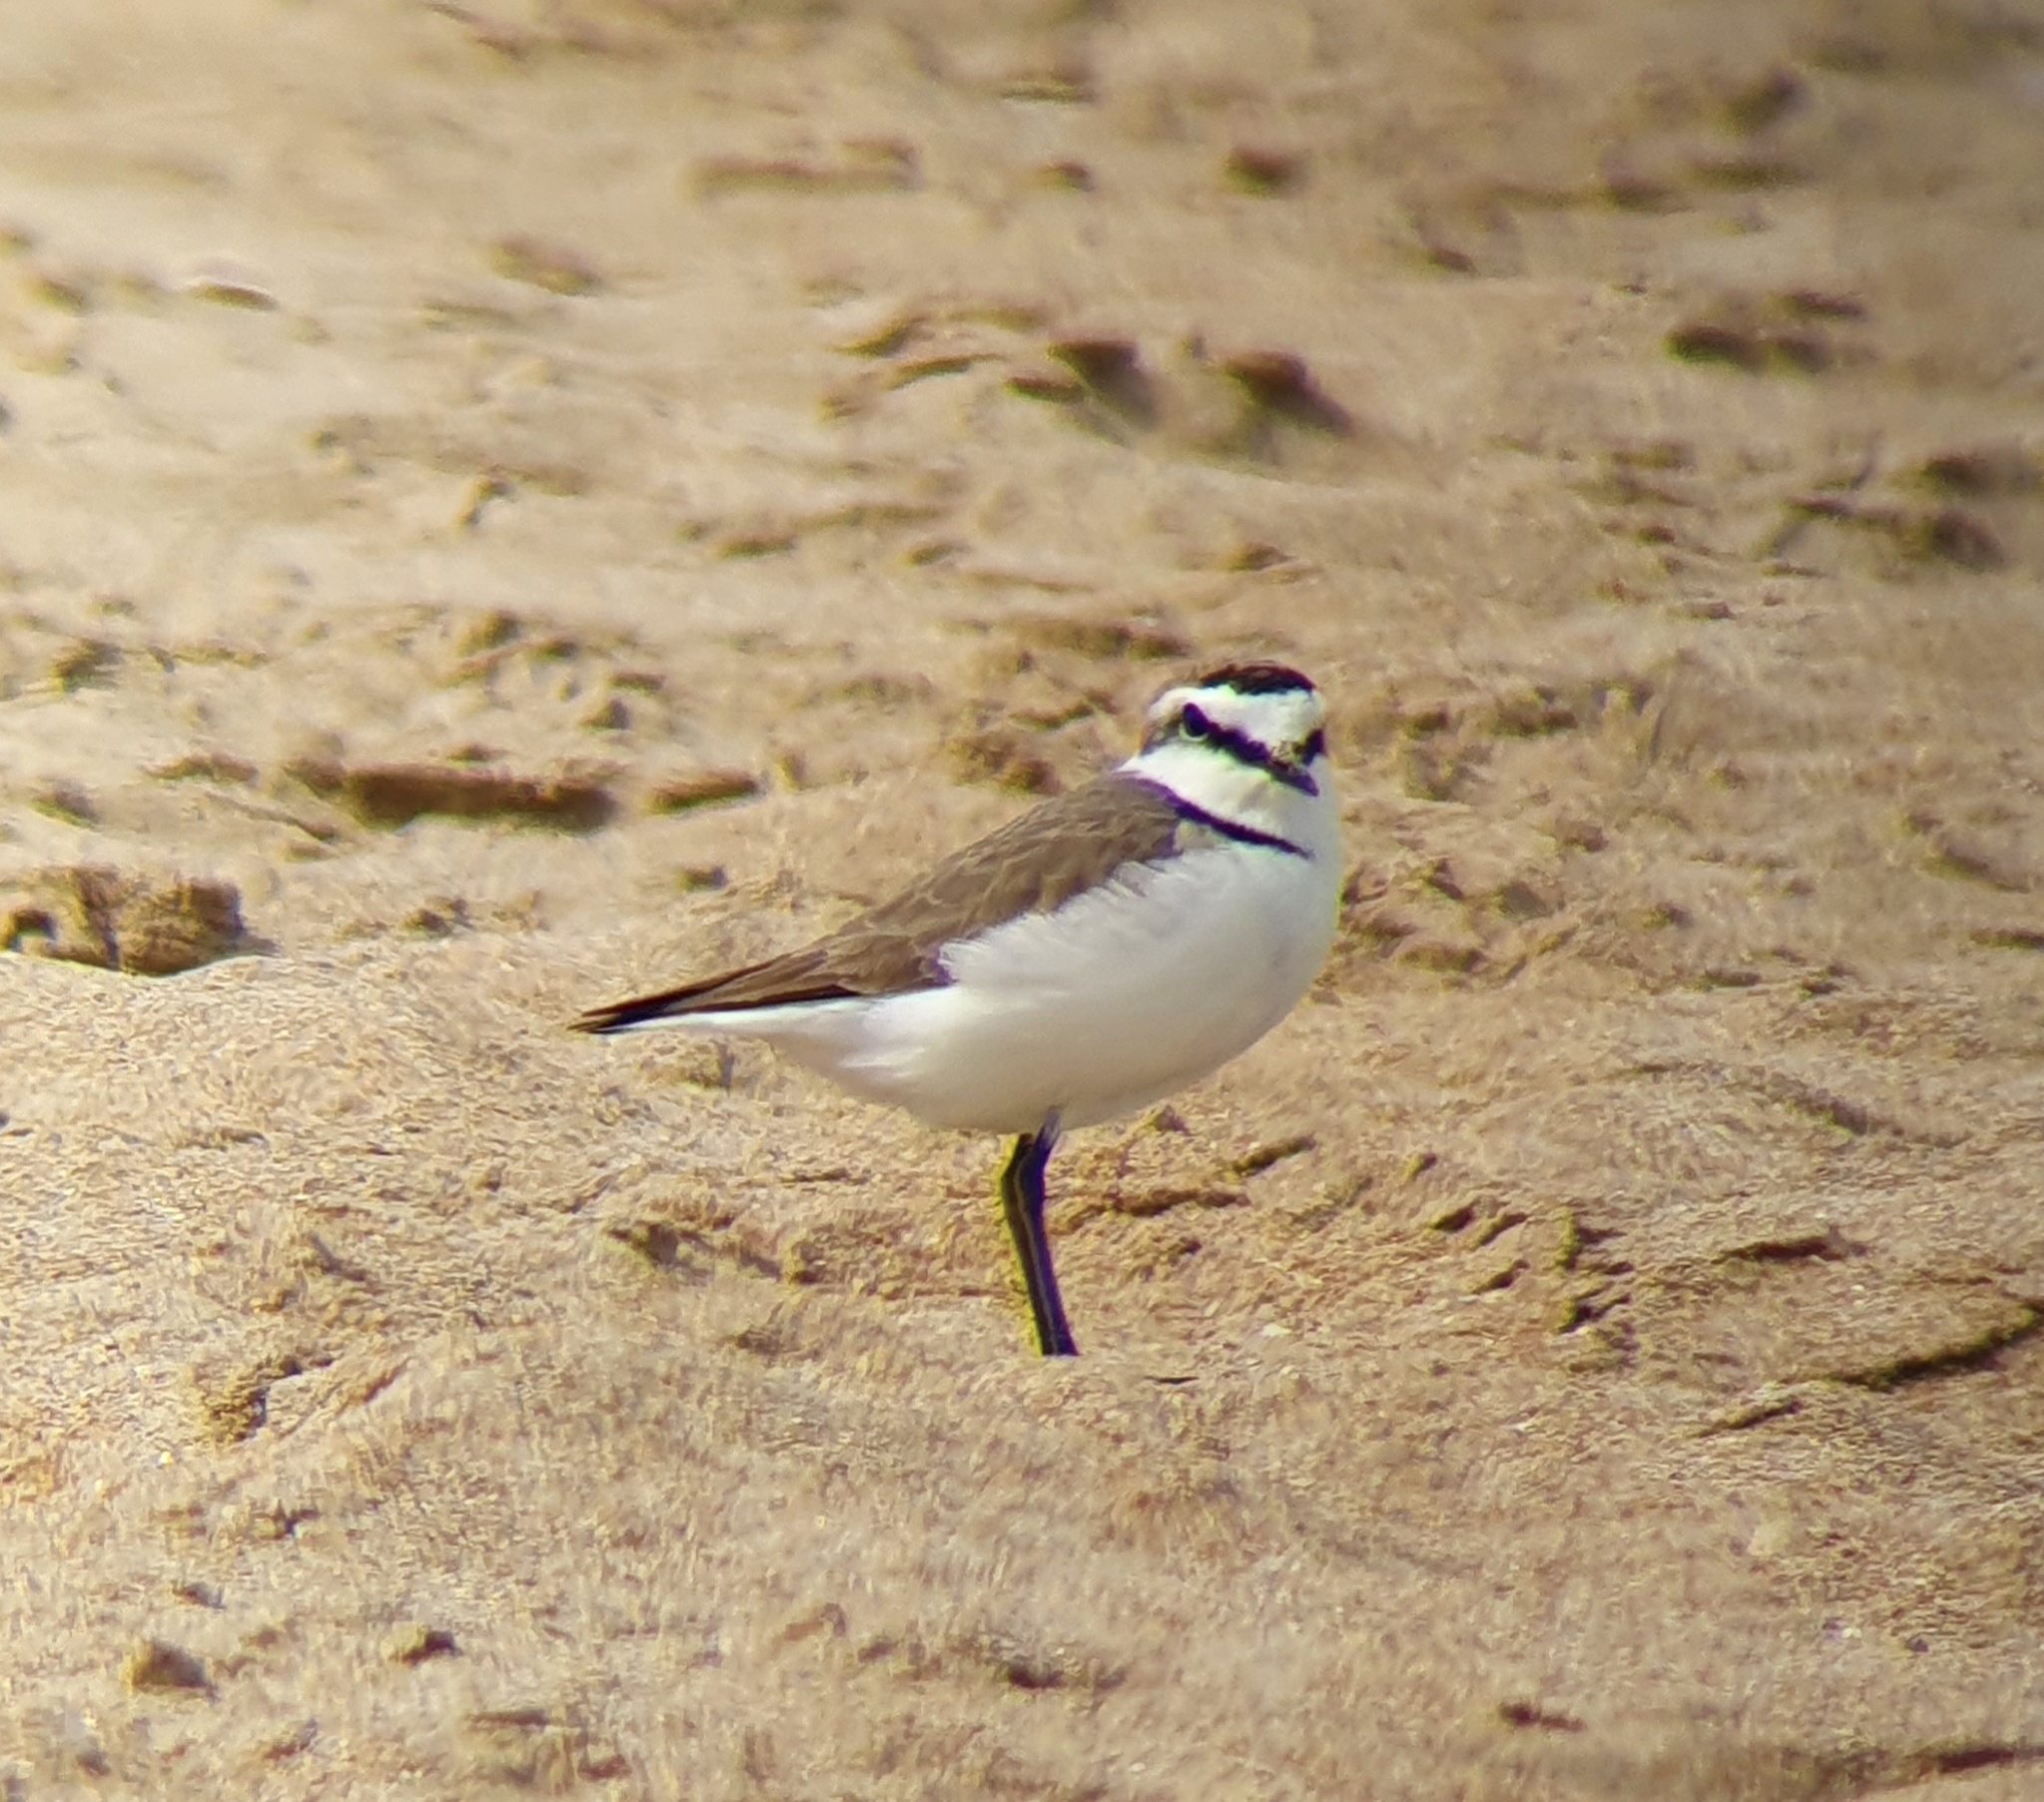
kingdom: Animalia
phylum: Chordata
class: Aves
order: Charadriiformes
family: Charadriidae
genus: Charadrius
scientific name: Charadrius alexandrinus
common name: Kentish plover
